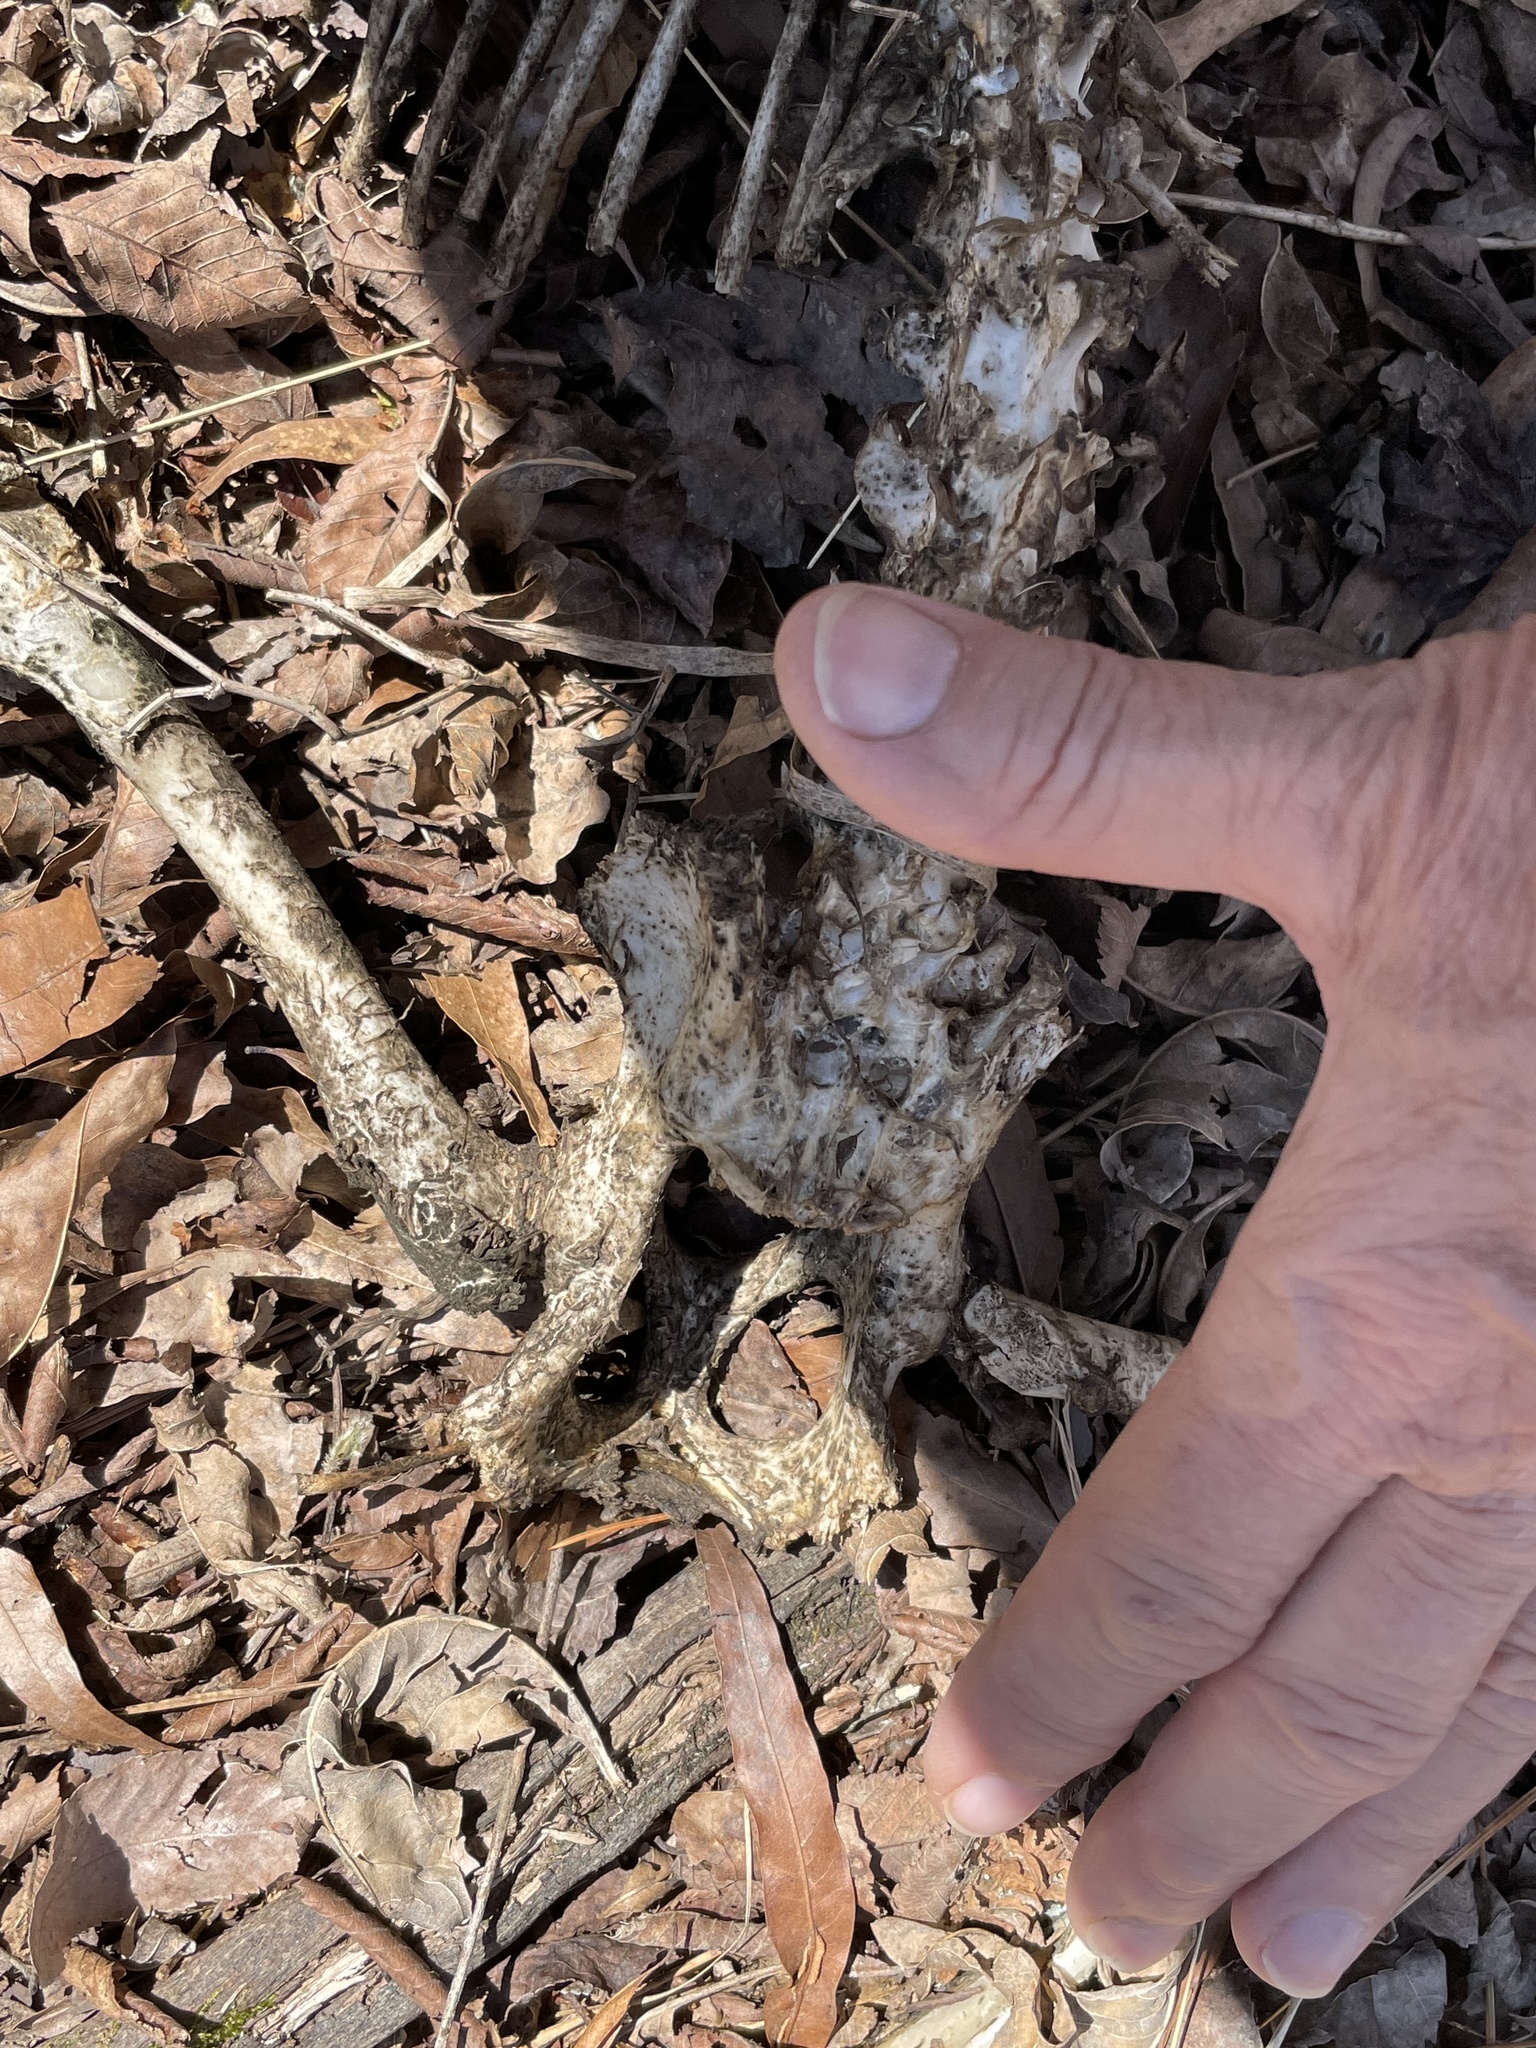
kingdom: Animalia
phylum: Chordata
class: Mammalia
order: Carnivora
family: Procyonidae
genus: Procyon
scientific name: Procyon lotor
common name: Raccoon
